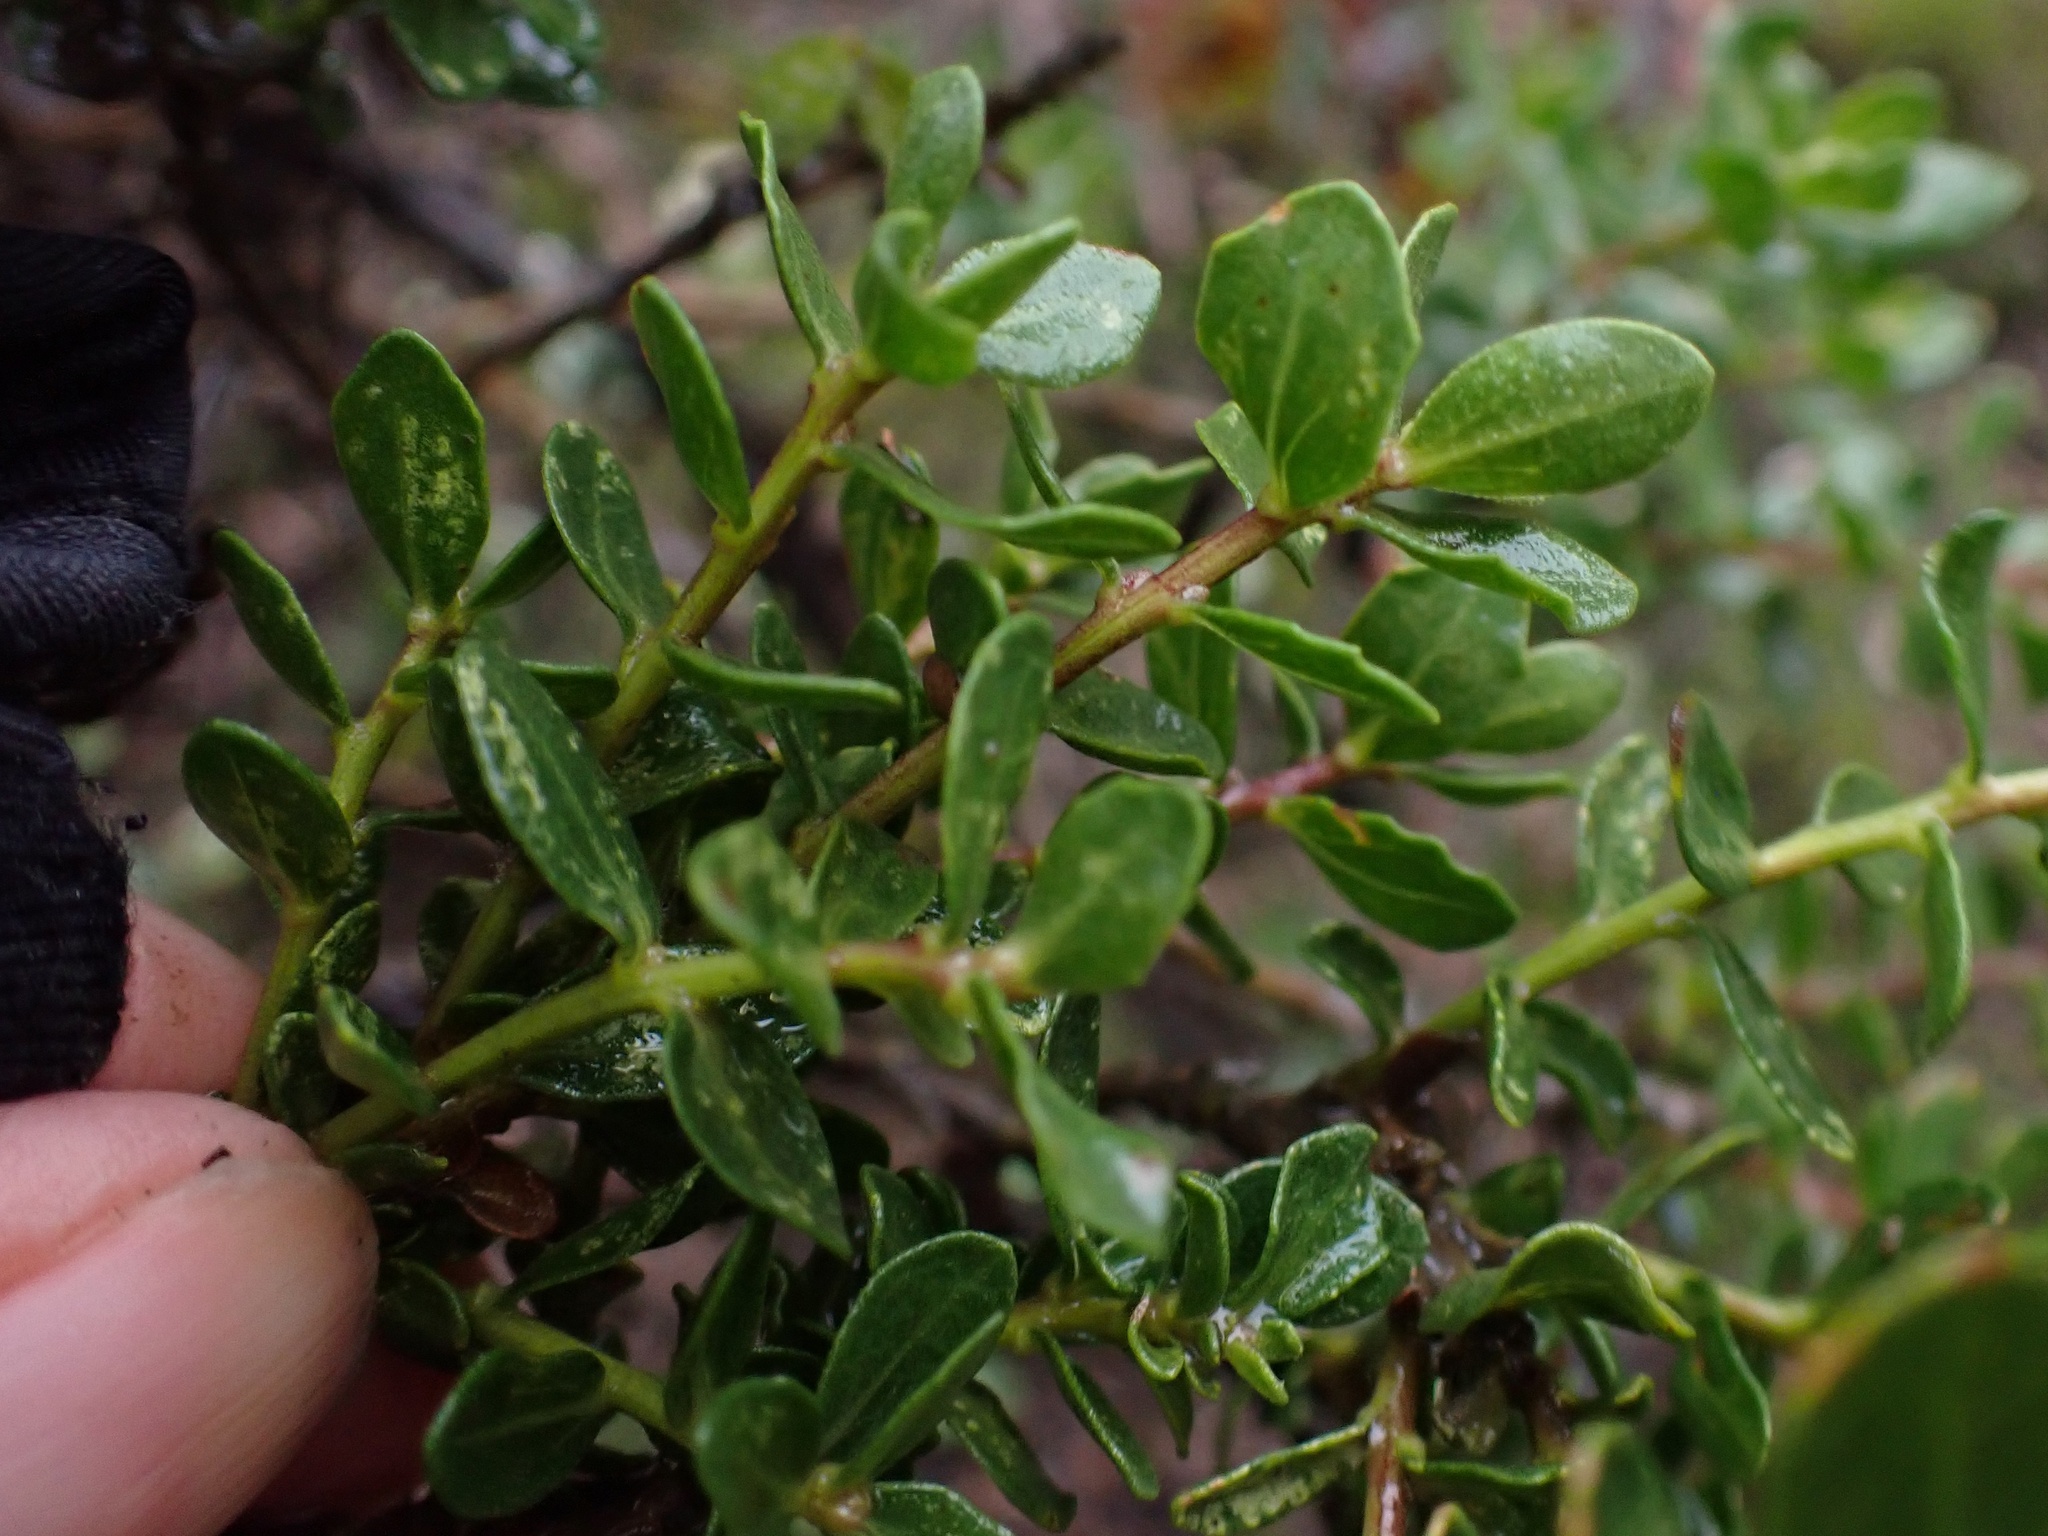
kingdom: Plantae
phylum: Tracheophyta
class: Magnoliopsida
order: Asterales
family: Asteraceae
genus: Baccharis
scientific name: Baccharis pilularis
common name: Coyotebrush
